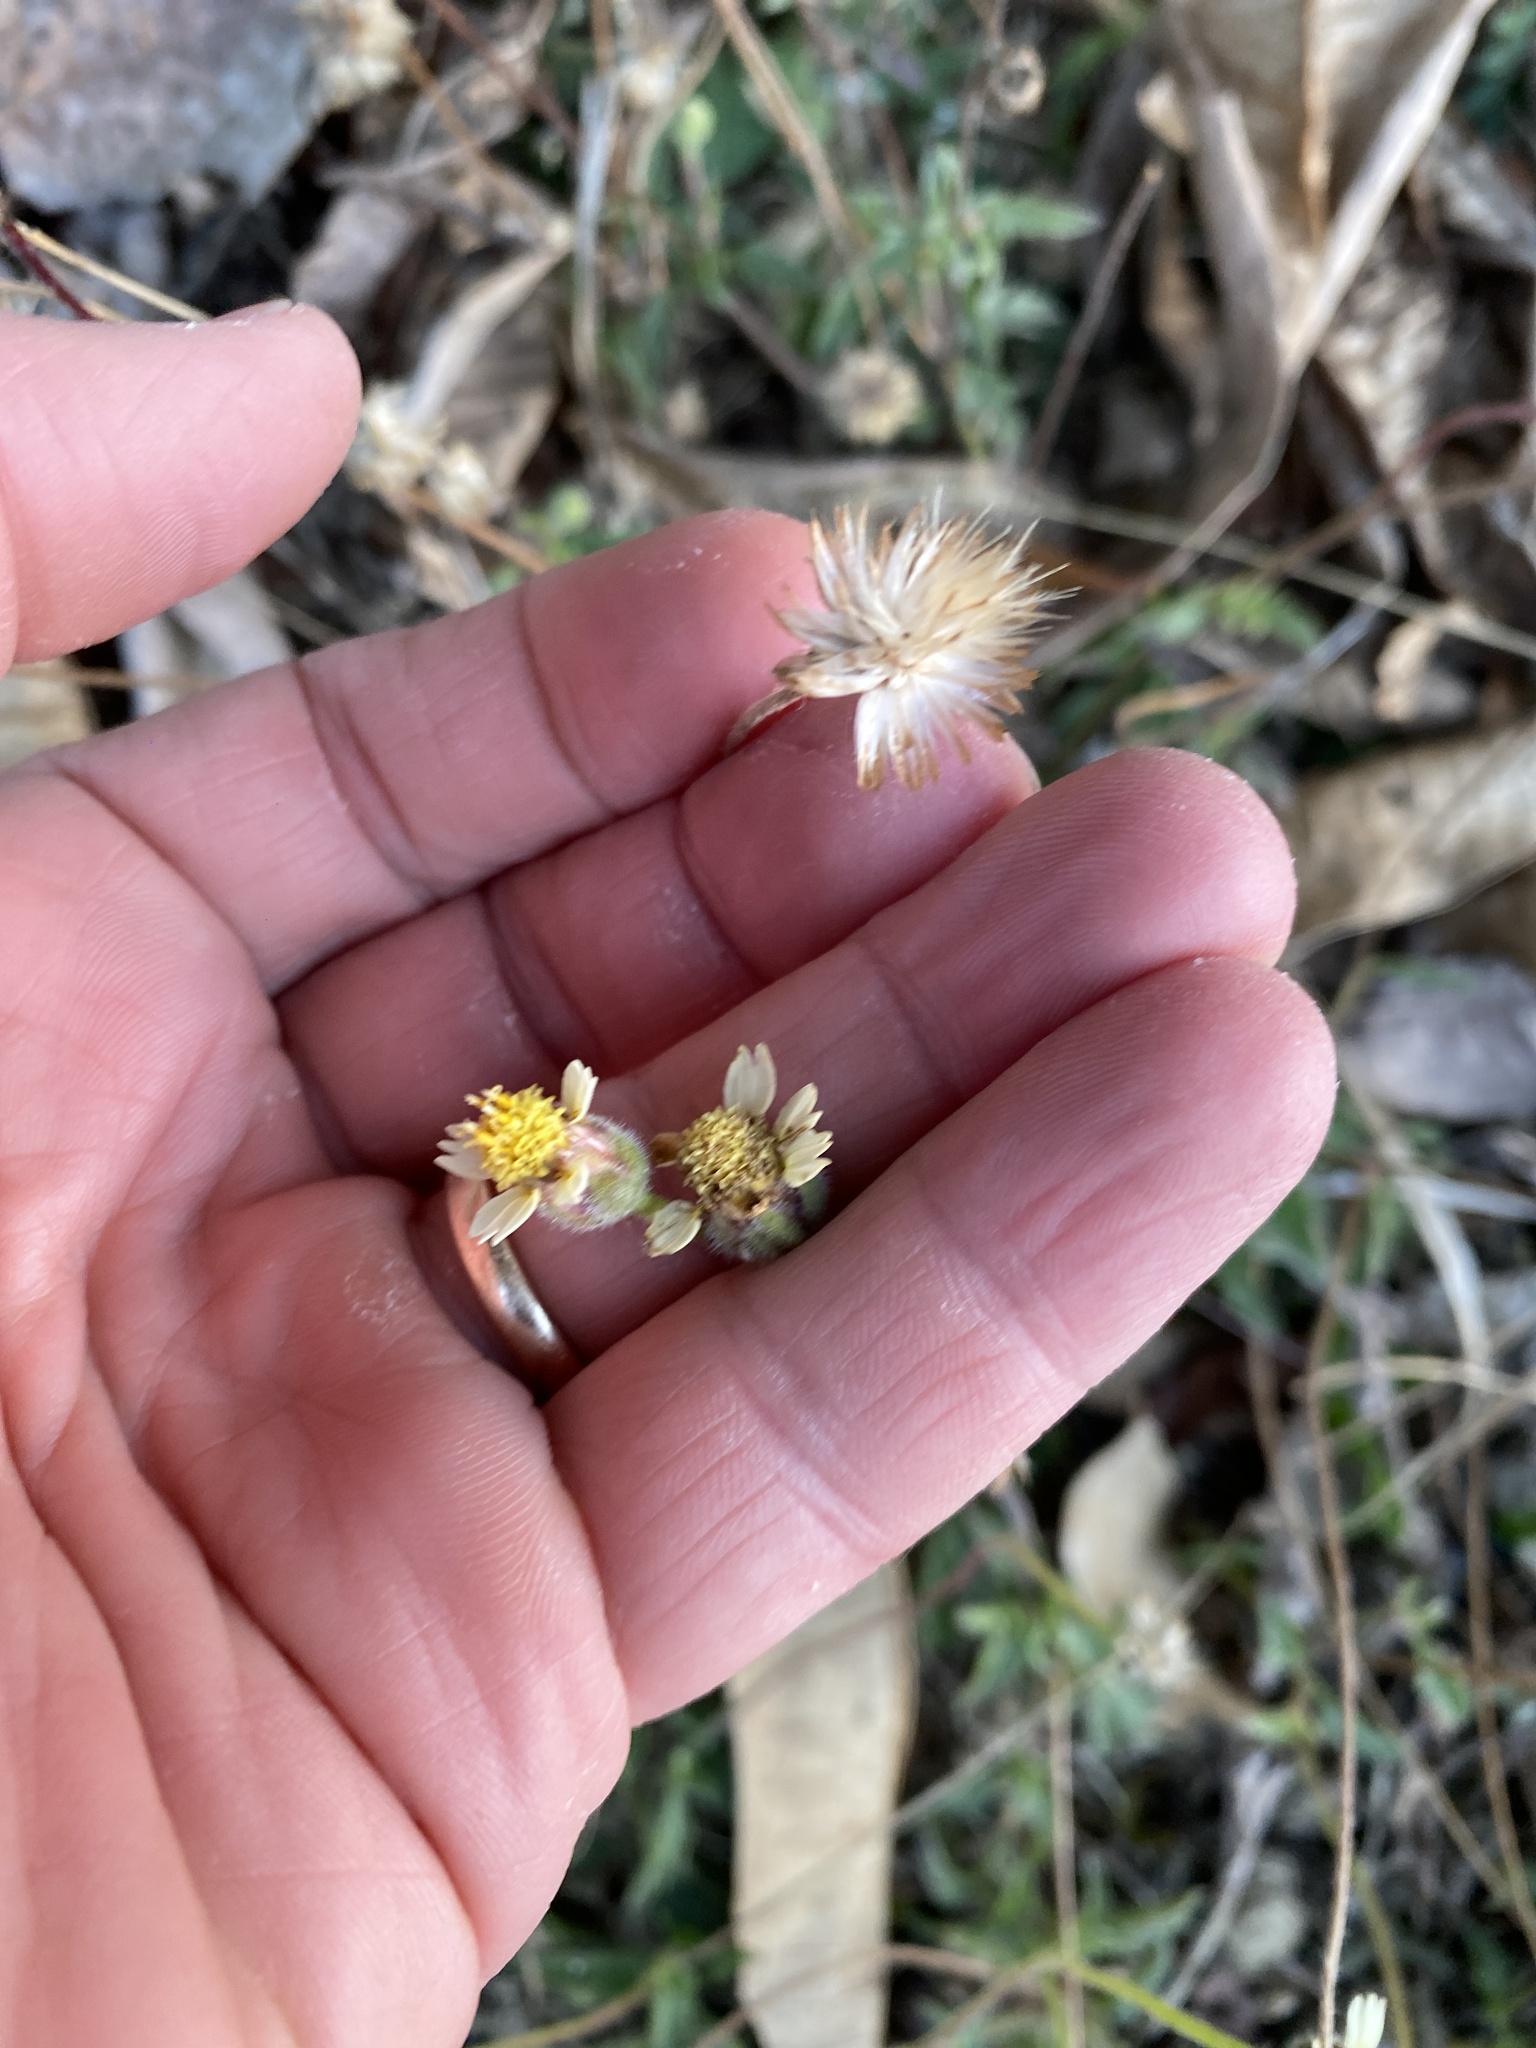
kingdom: Plantae
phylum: Tracheophyta
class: Magnoliopsida
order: Asterales
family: Asteraceae
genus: Tridax
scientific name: Tridax procumbens
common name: Coatbuttons
